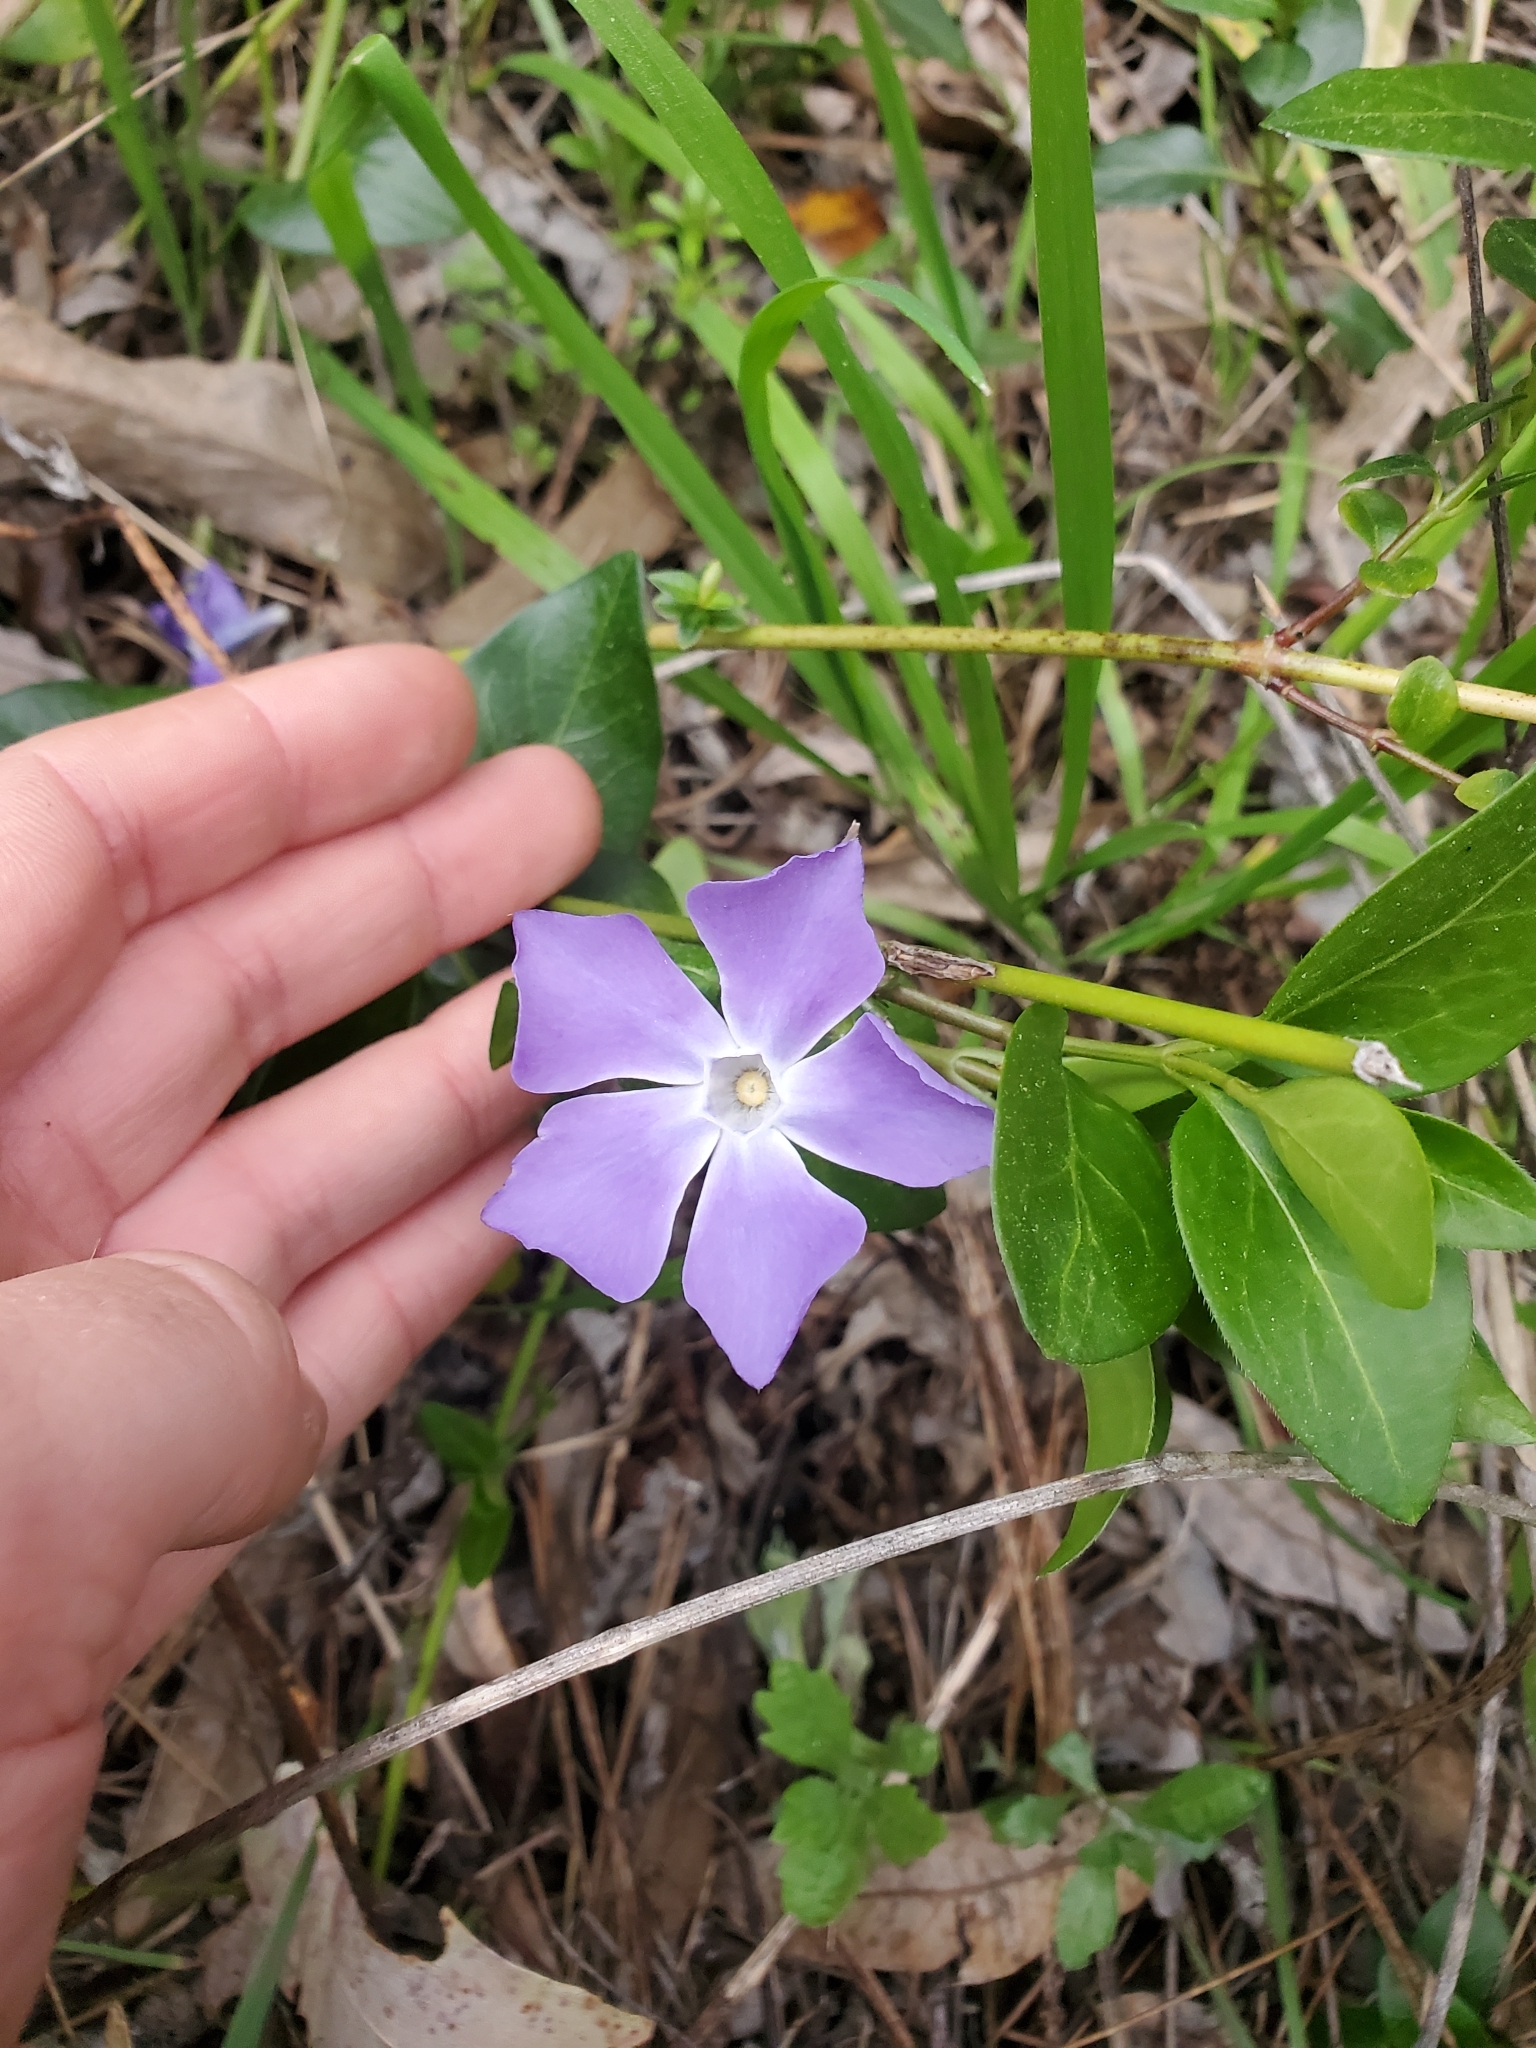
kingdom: Plantae
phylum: Tracheophyta
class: Magnoliopsida
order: Gentianales
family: Apocynaceae
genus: Vinca
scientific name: Vinca major
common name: Greater periwinkle
